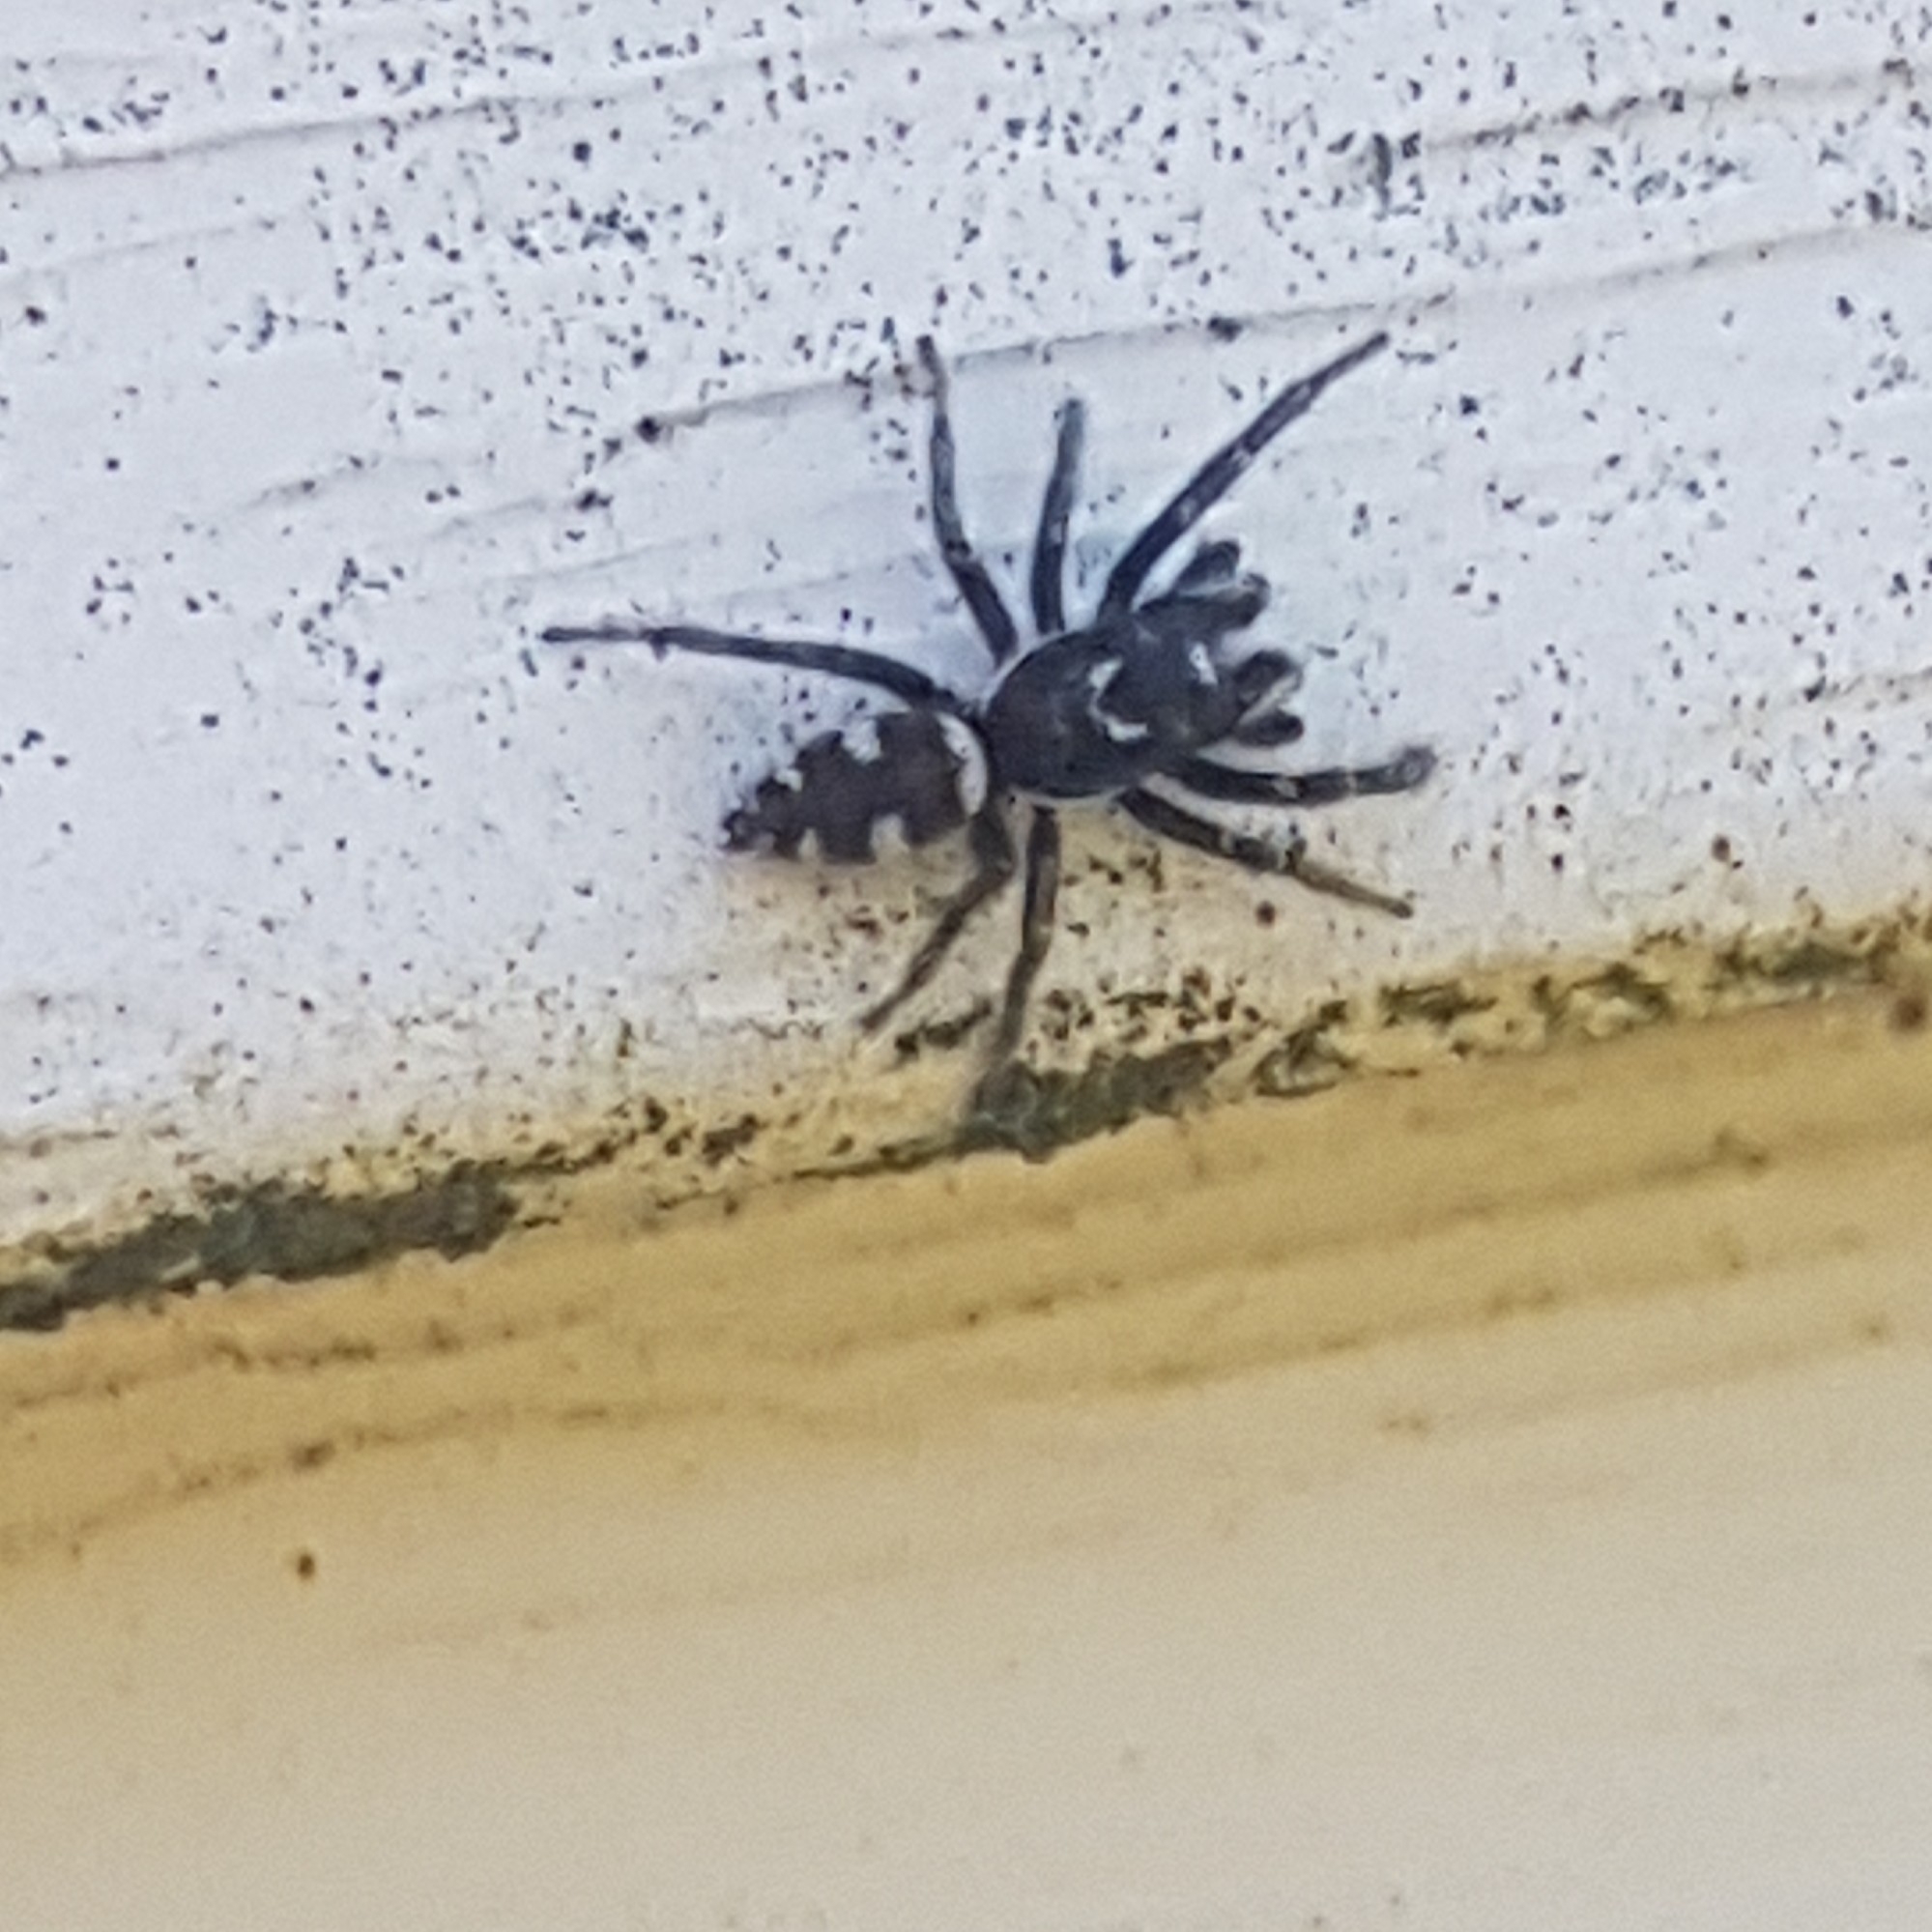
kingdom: Animalia
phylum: Arthropoda
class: Arachnida
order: Araneae
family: Salticidae
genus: Salticus
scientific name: Salticus scenicus
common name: Zebra jumper
